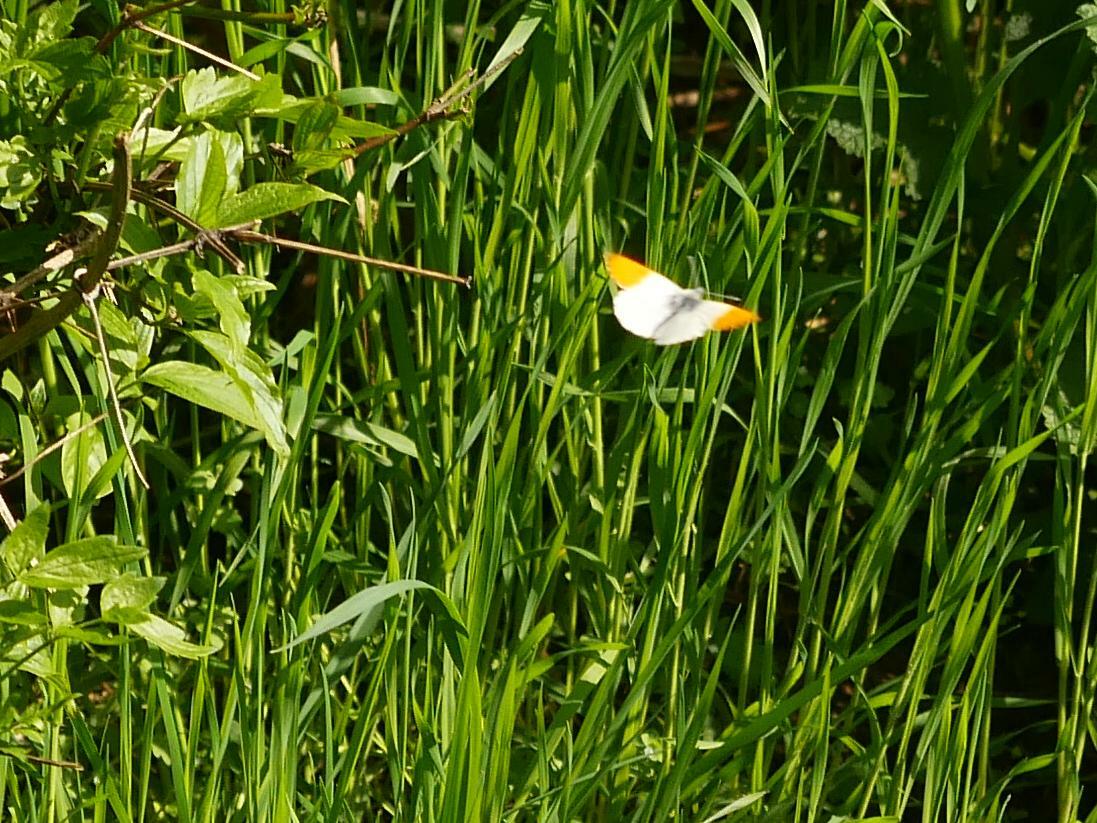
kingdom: Animalia
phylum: Arthropoda
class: Insecta
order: Lepidoptera
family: Pieridae
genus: Anthocharis
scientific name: Anthocharis cardamines
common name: Orange-tip
